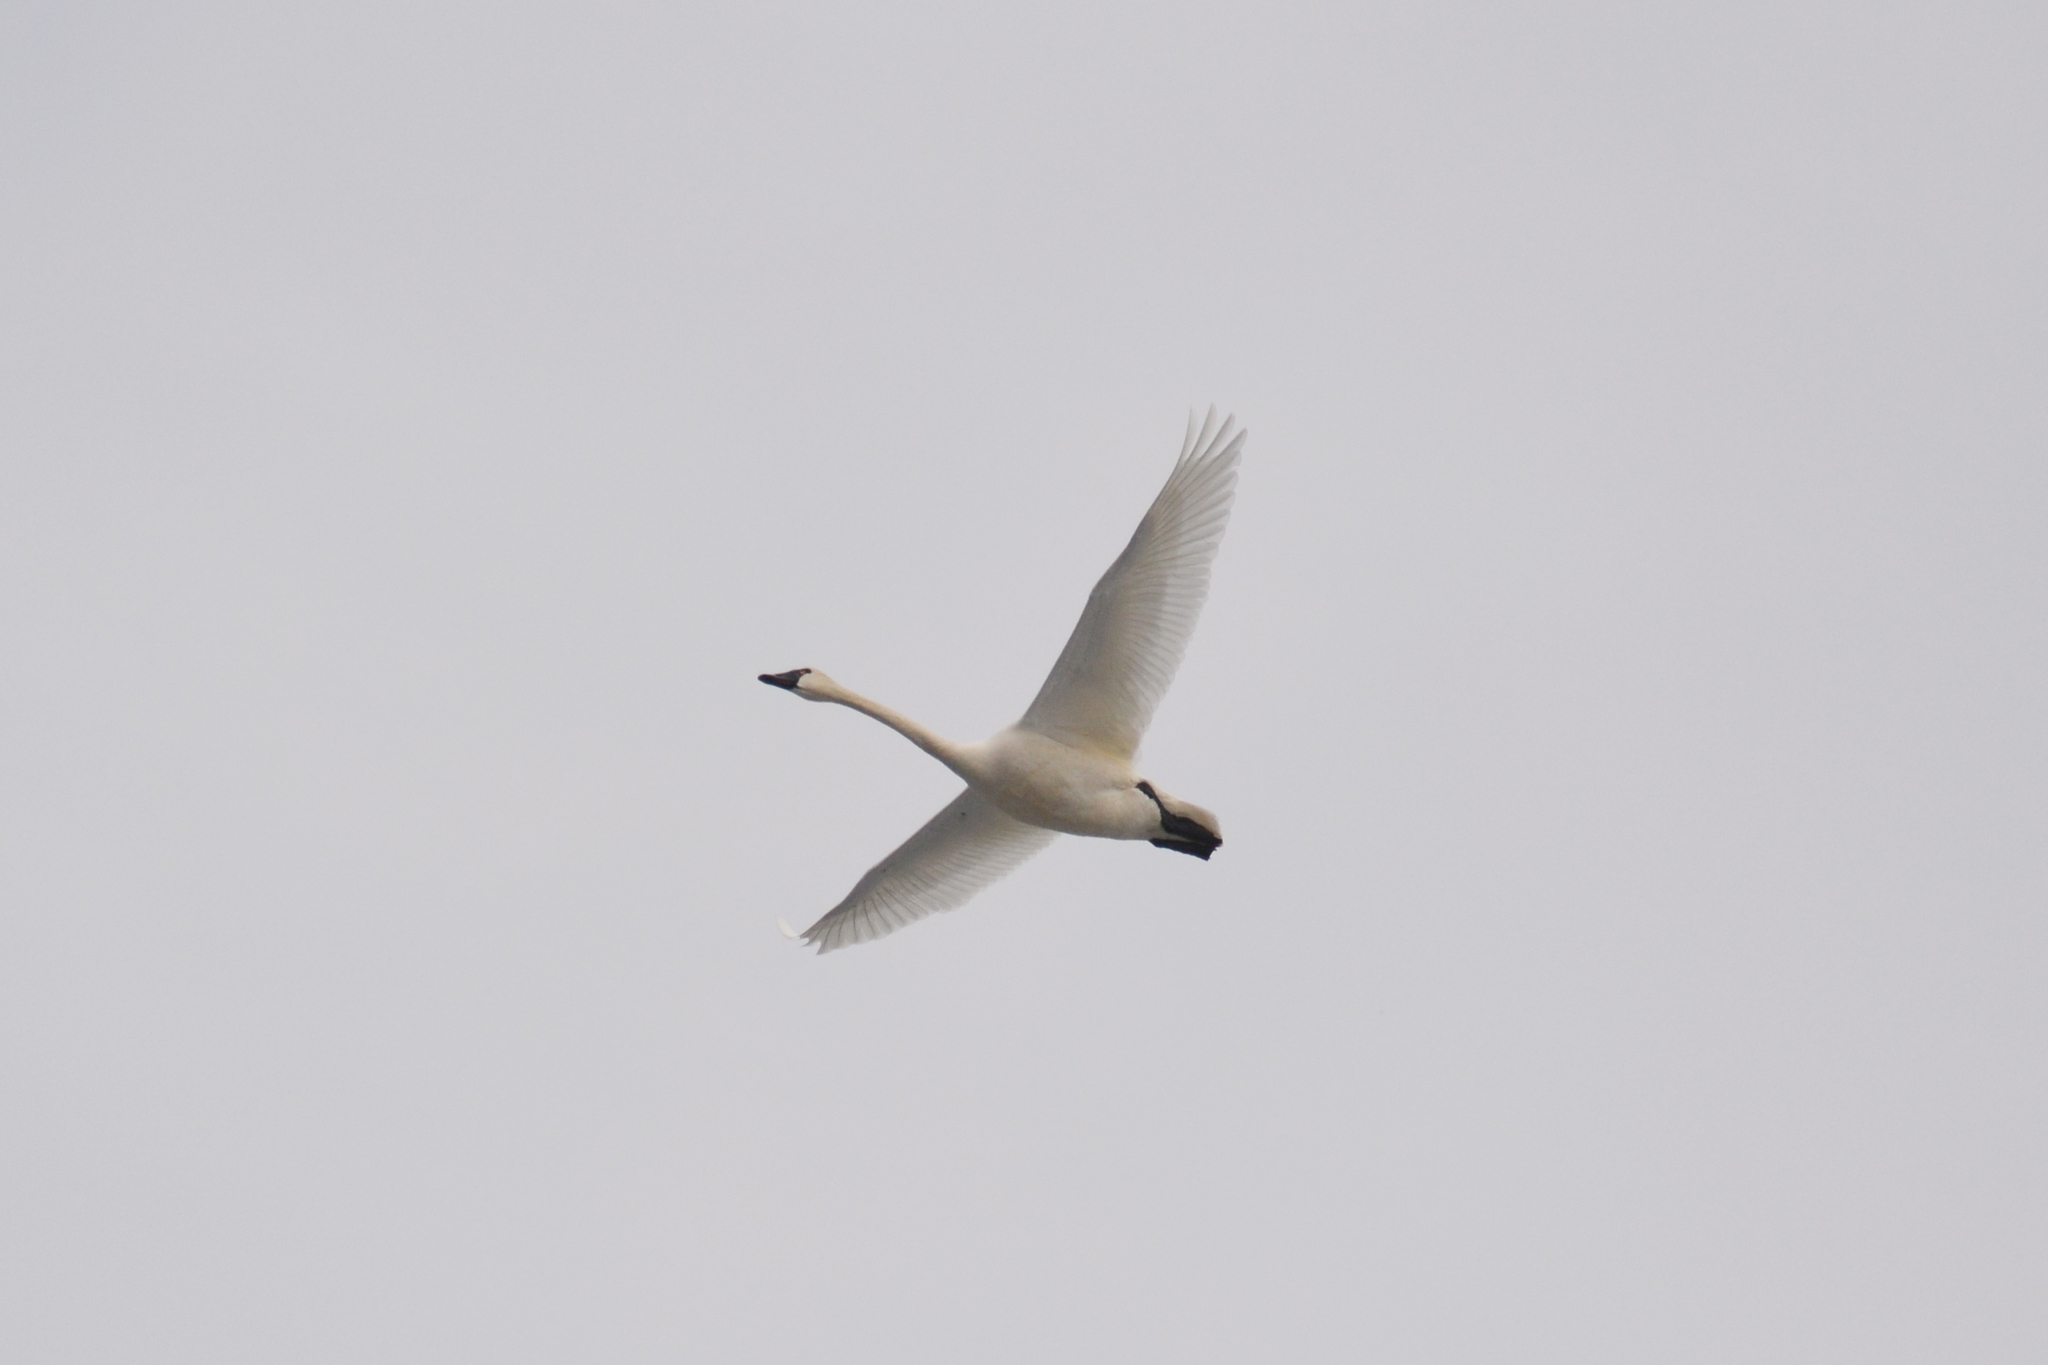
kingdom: Animalia
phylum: Chordata
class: Aves
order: Anseriformes
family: Anatidae
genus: Cygnus
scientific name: Cygnus columbianus
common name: Tundra swan
